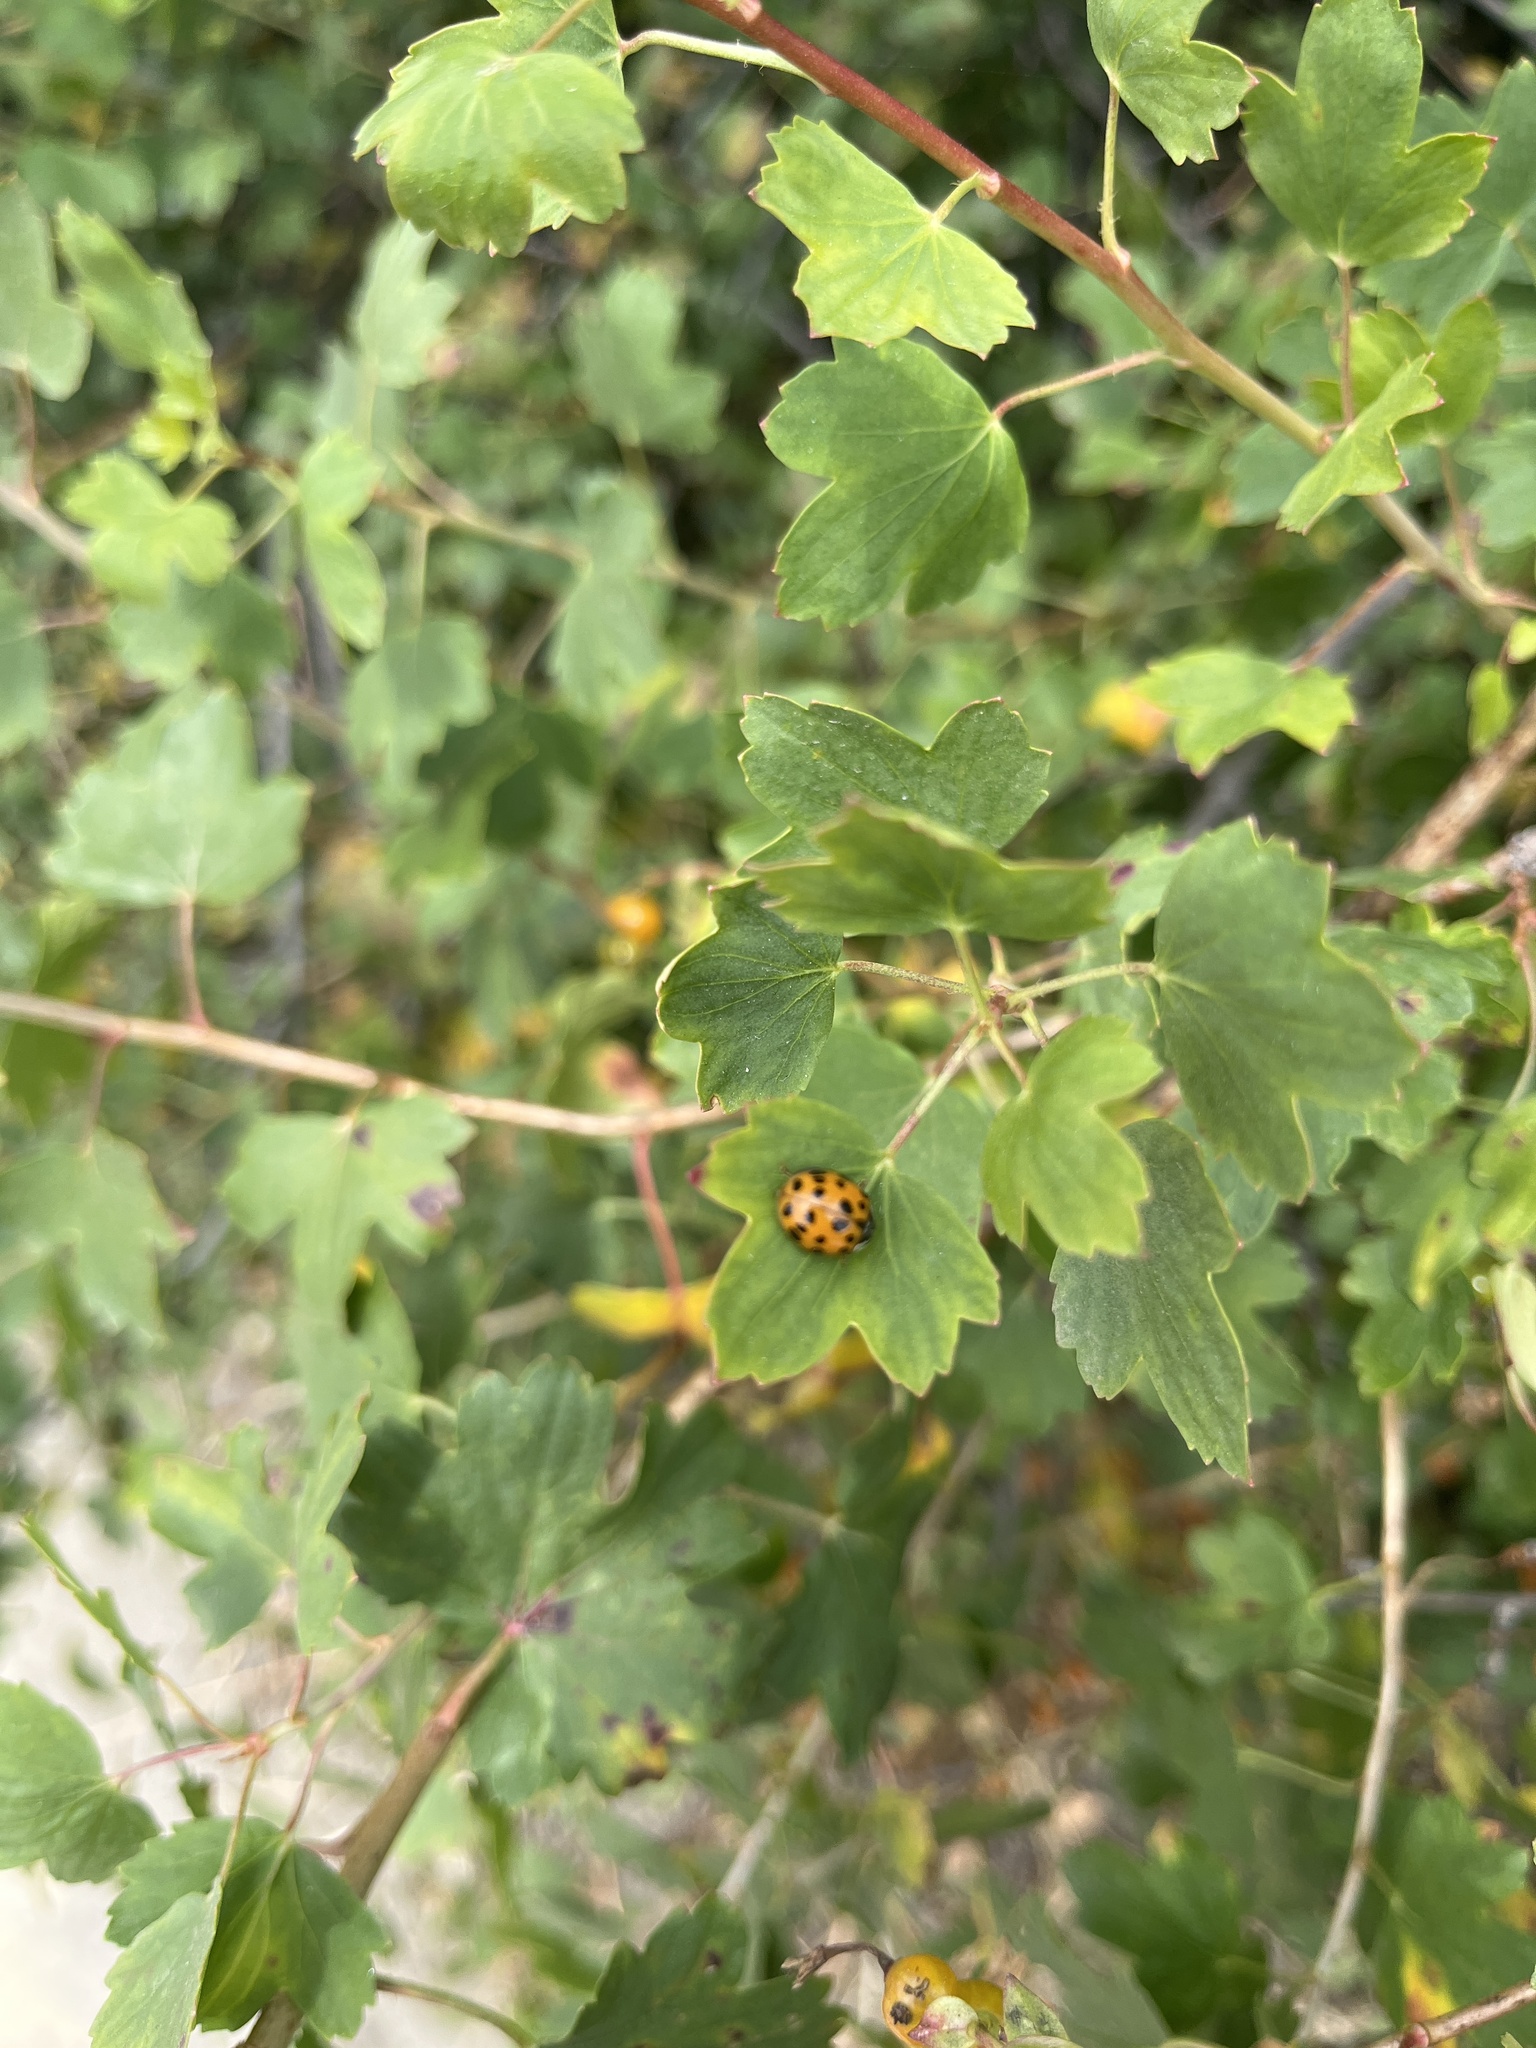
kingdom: Animalia
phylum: Arthropoda
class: Insecta
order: Coleoptera
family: Coccinellidae
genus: Harmonia
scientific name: Harmonia axyridis
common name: Harlequin ladybird
